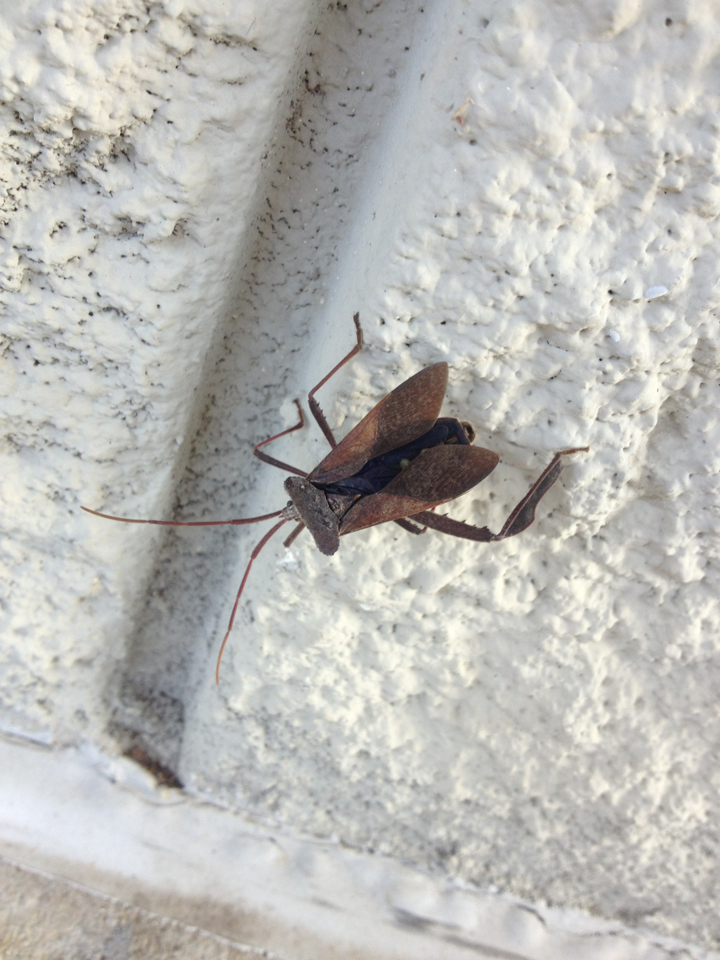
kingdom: Animalia
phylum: Arthropoda
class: Insecta
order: Hemiptera
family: Coreidae
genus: Acanthocephala
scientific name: Acanthocephala declivis
